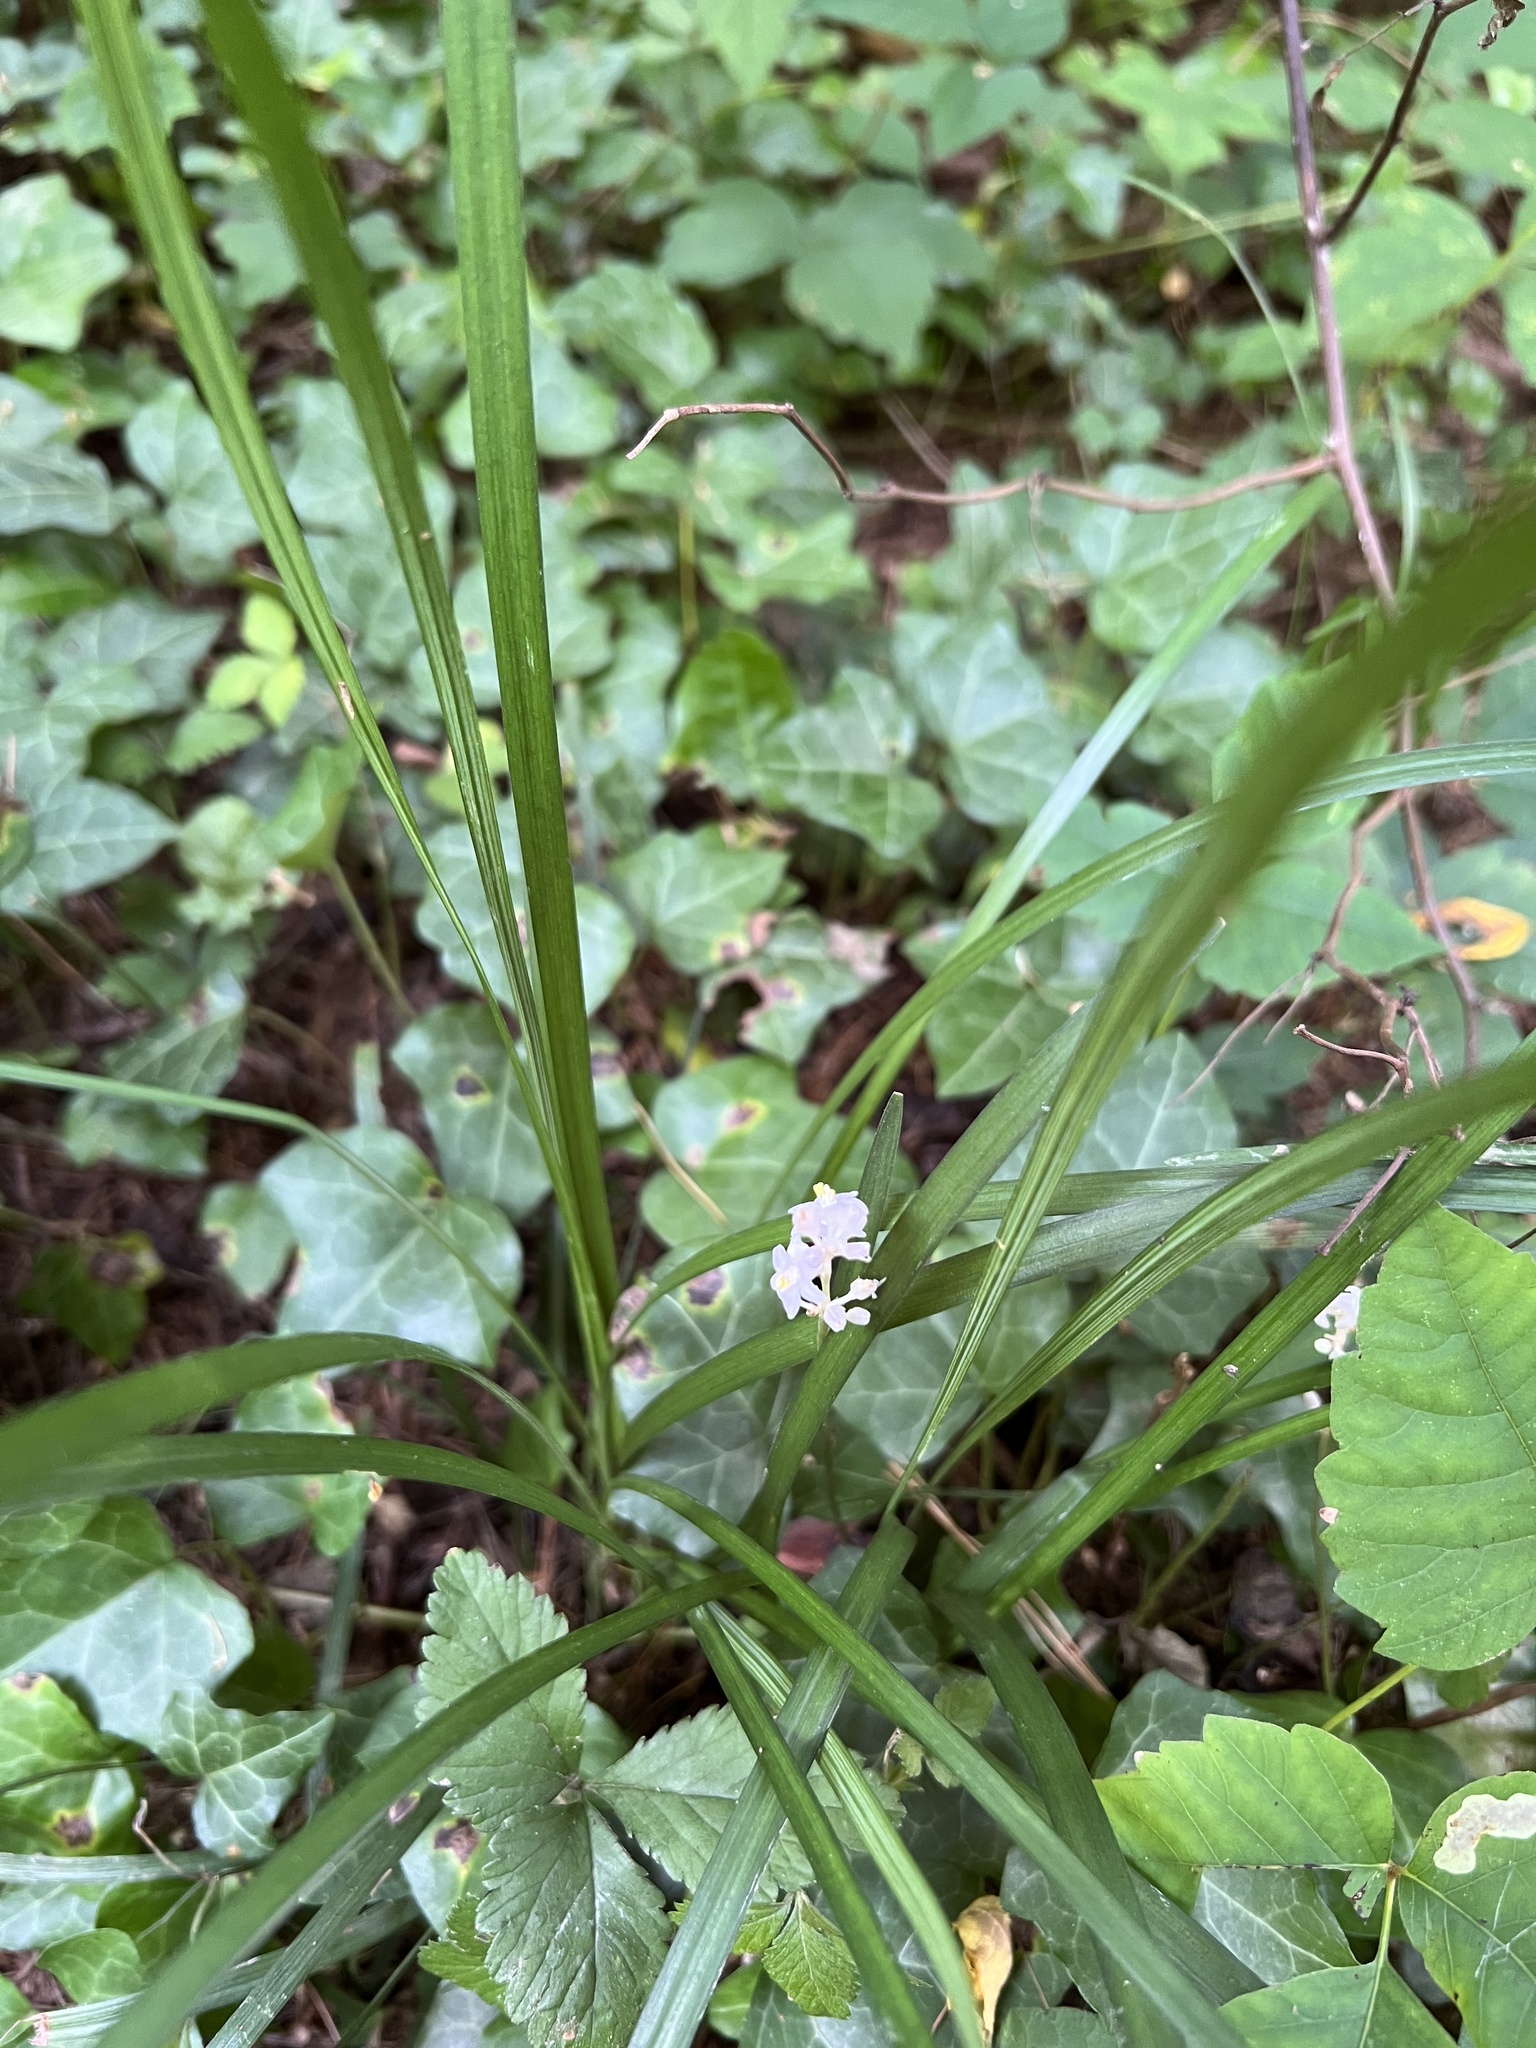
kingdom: Plantae
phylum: Tracheophyta
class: Liliopsida
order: Asparagales
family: Asparagaceae
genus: Liriope
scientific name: Liriope spicata
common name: Creeping liriope
